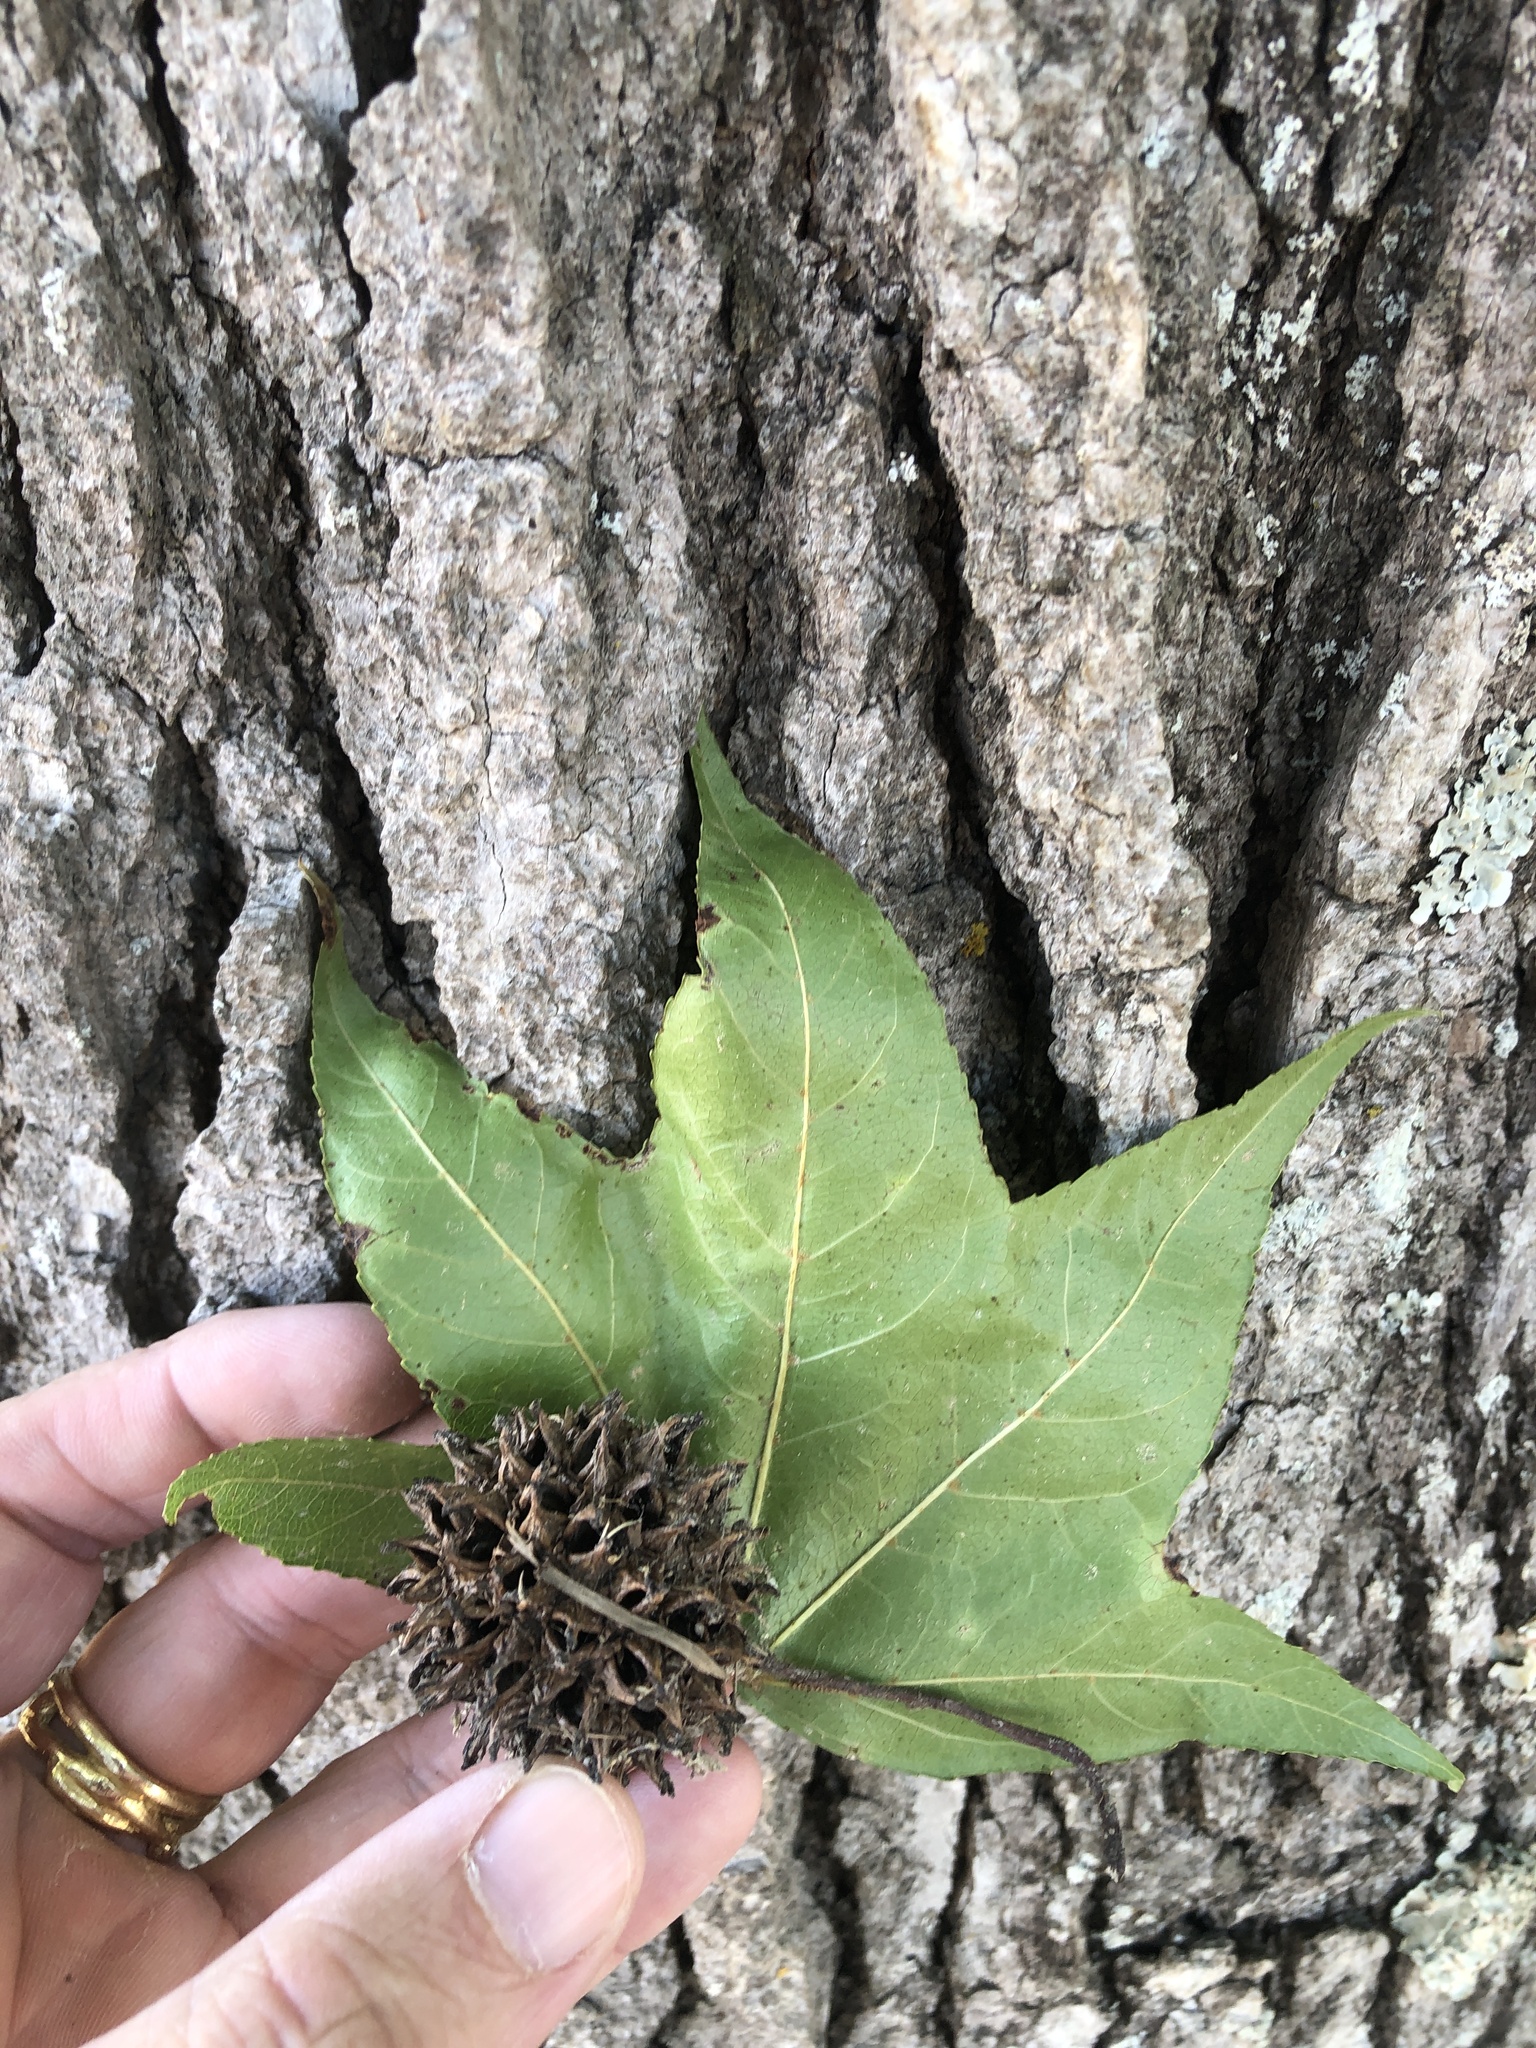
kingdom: Plantae
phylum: Tracheophyta
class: Magnoliopsida
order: Saxifragales
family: Altingiaceae
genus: Liquidambar
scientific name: Liquidambar styraciflua
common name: Sweet gum
